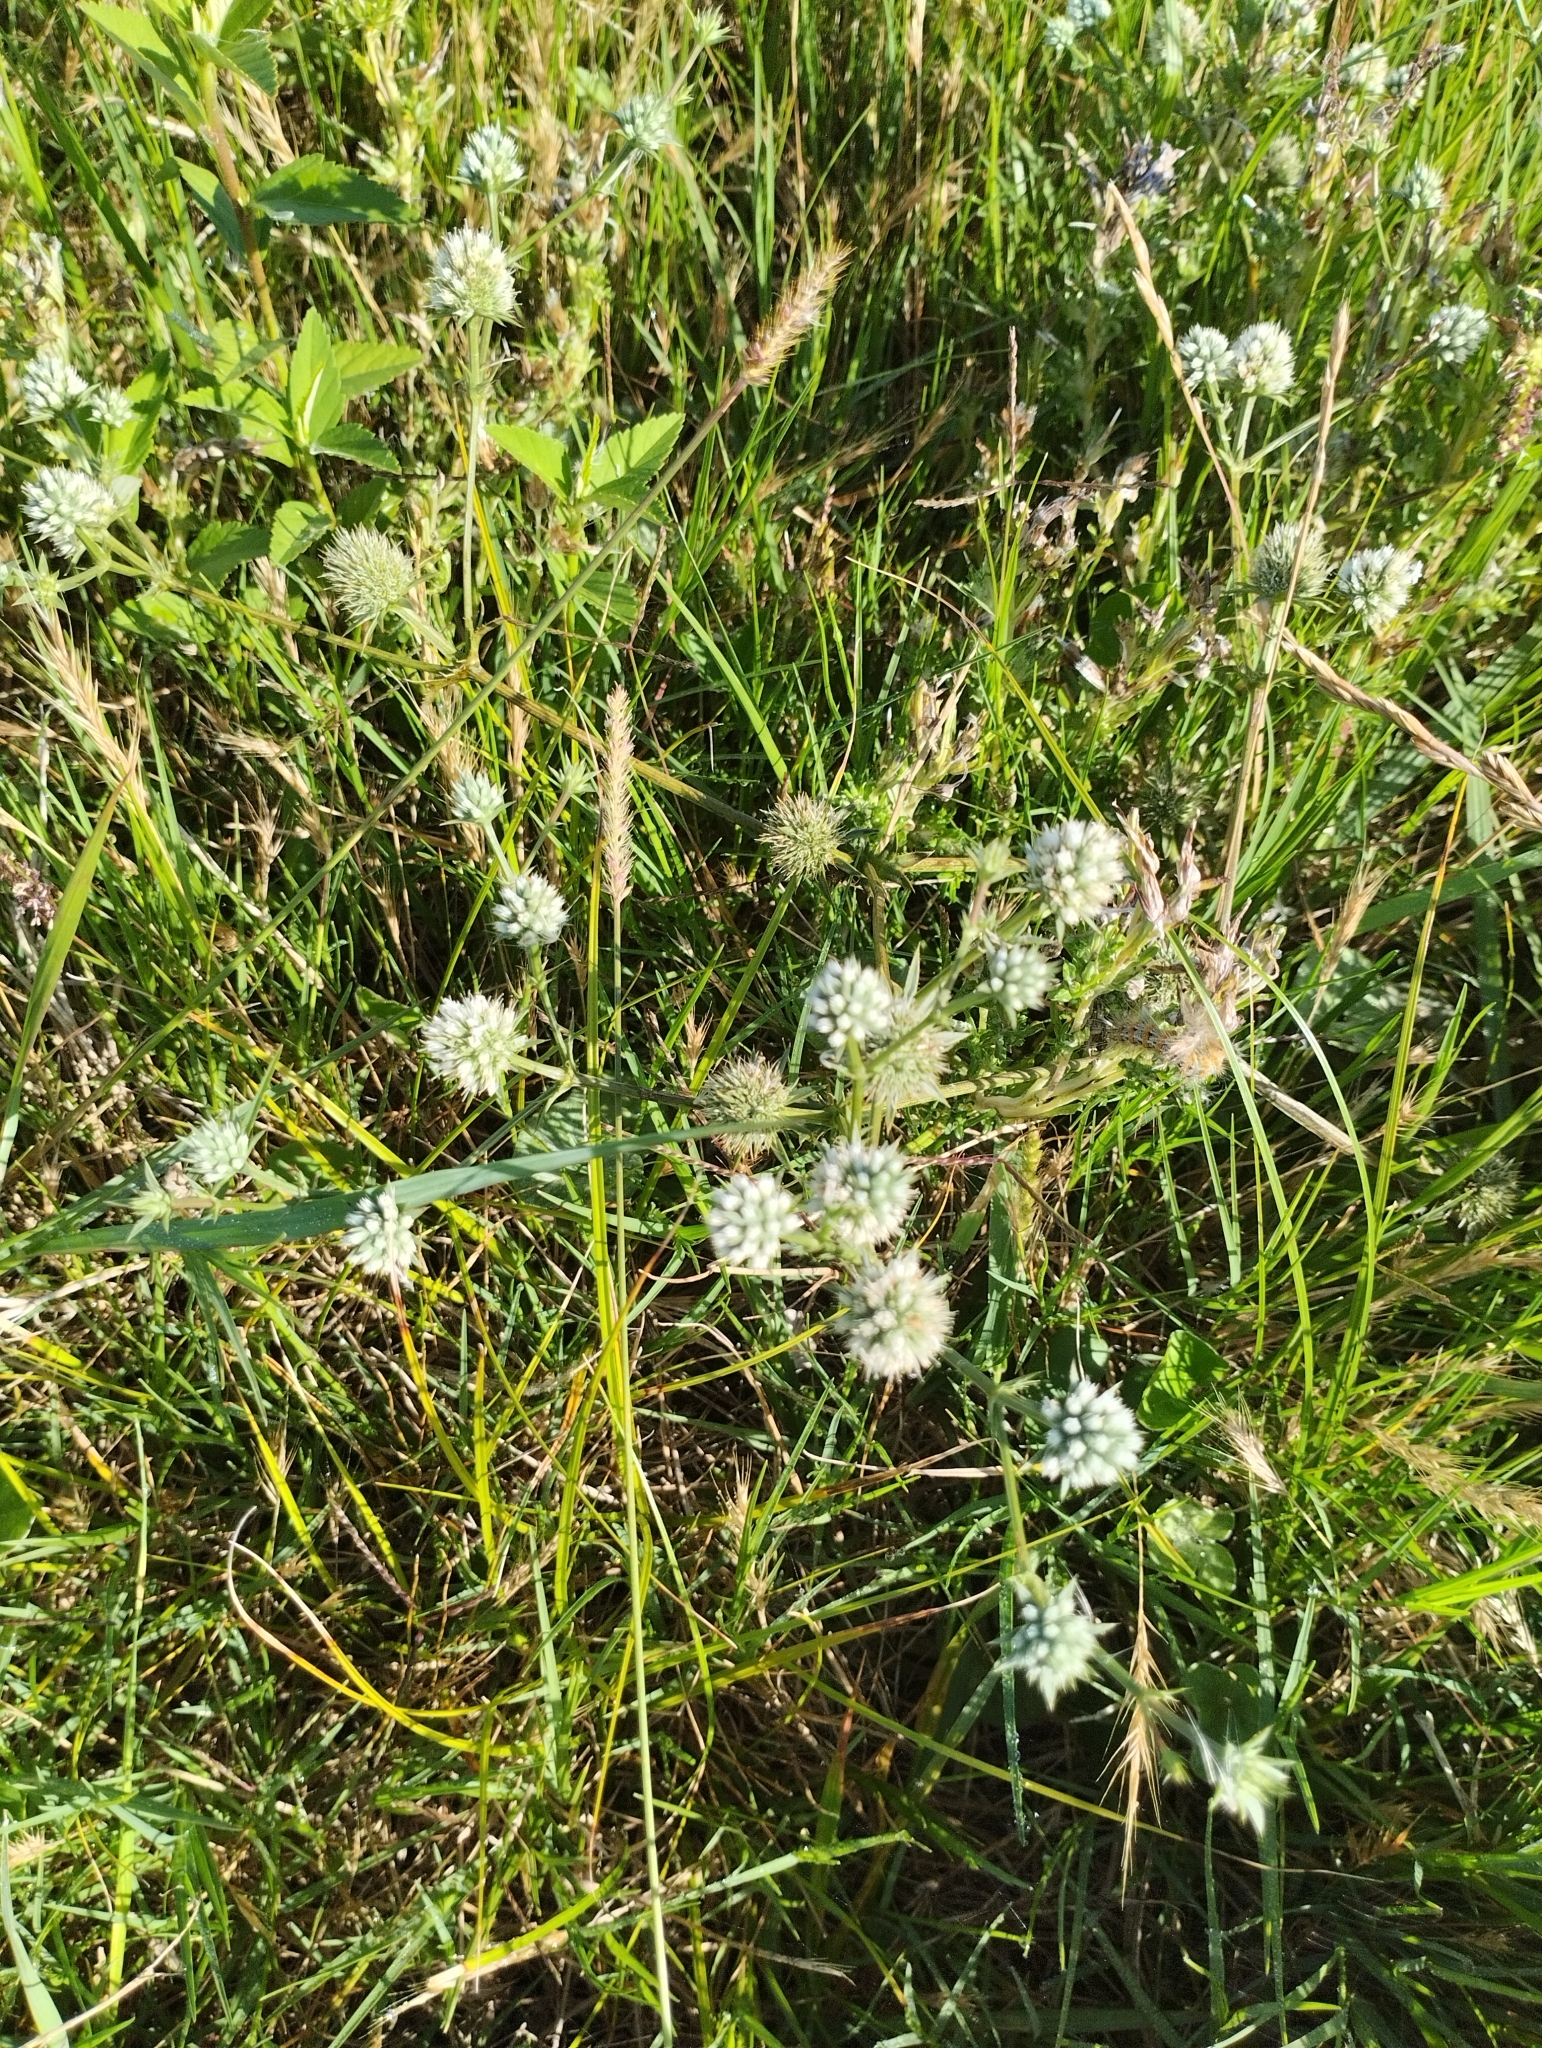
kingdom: Plantae
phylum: Tracheophyta
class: Magnoliopsida
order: Apiales
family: Apiaceae
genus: Eryngium
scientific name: Eryngium nudicaule
